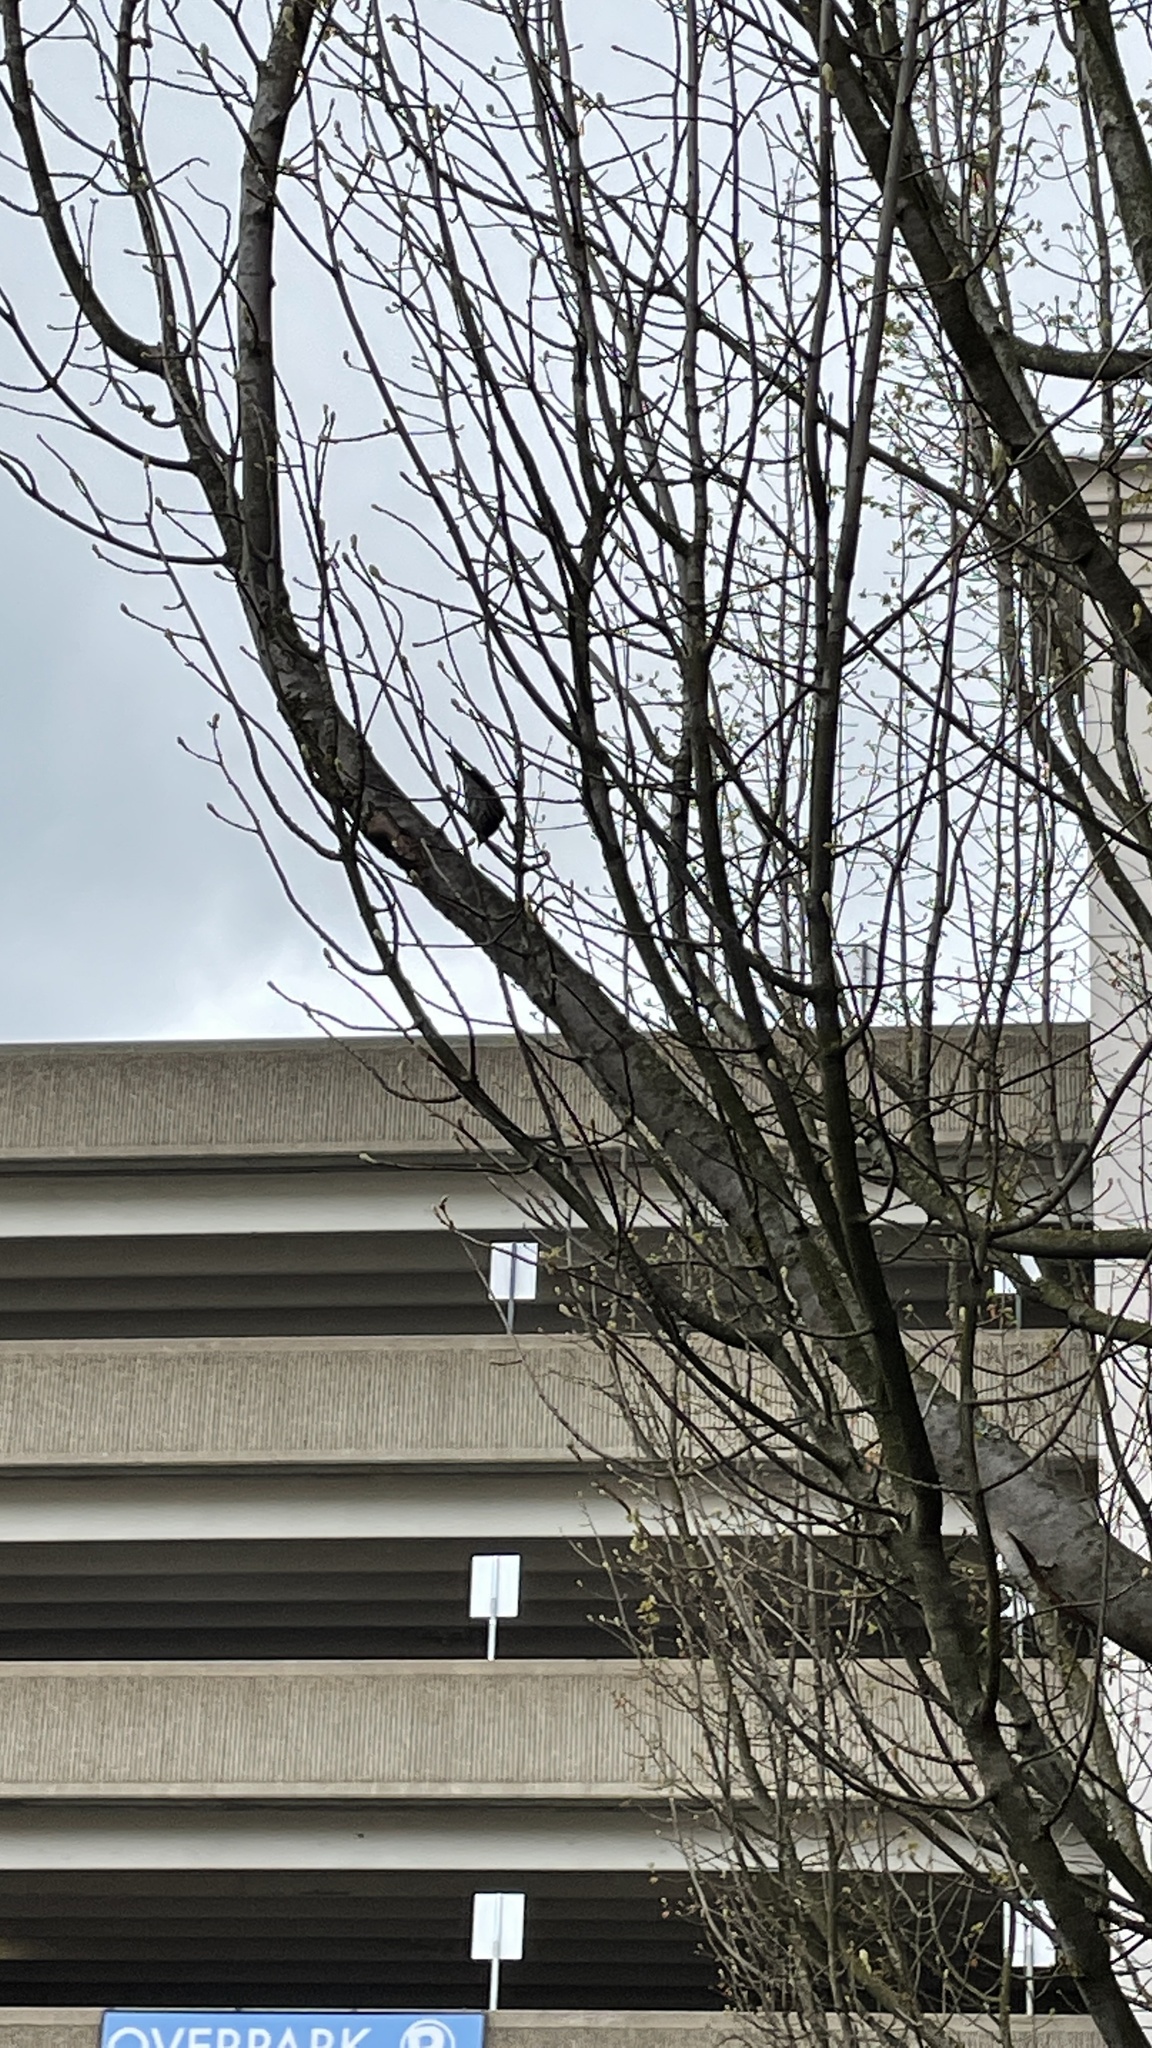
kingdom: Animalia
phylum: Chordata
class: Aves
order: Passeriformes
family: Parulidae
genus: Setophaga
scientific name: Setophaga coronata
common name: Myrtle warbler
